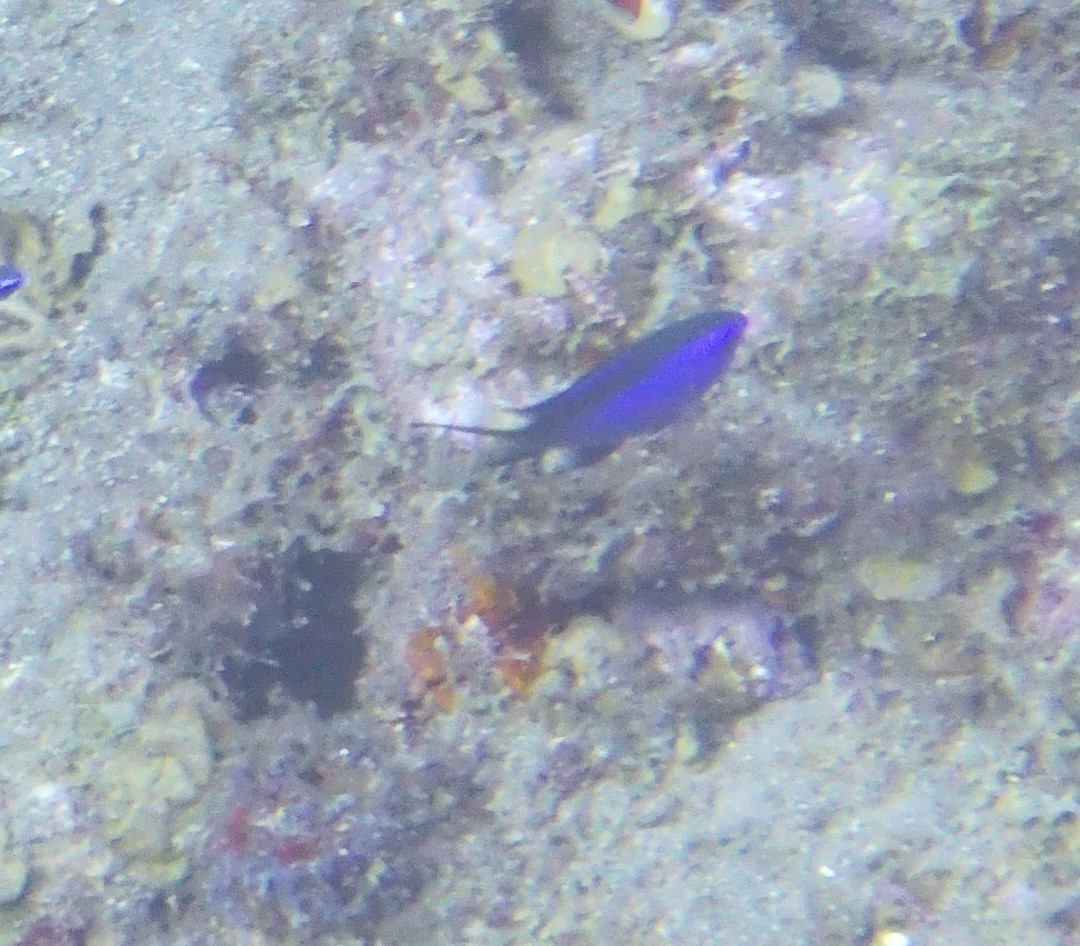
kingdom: Animalia
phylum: Chordata
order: Perciformes
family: Pomacentridae
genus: Chromis
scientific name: Chromis cyanea
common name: Blue chromis
